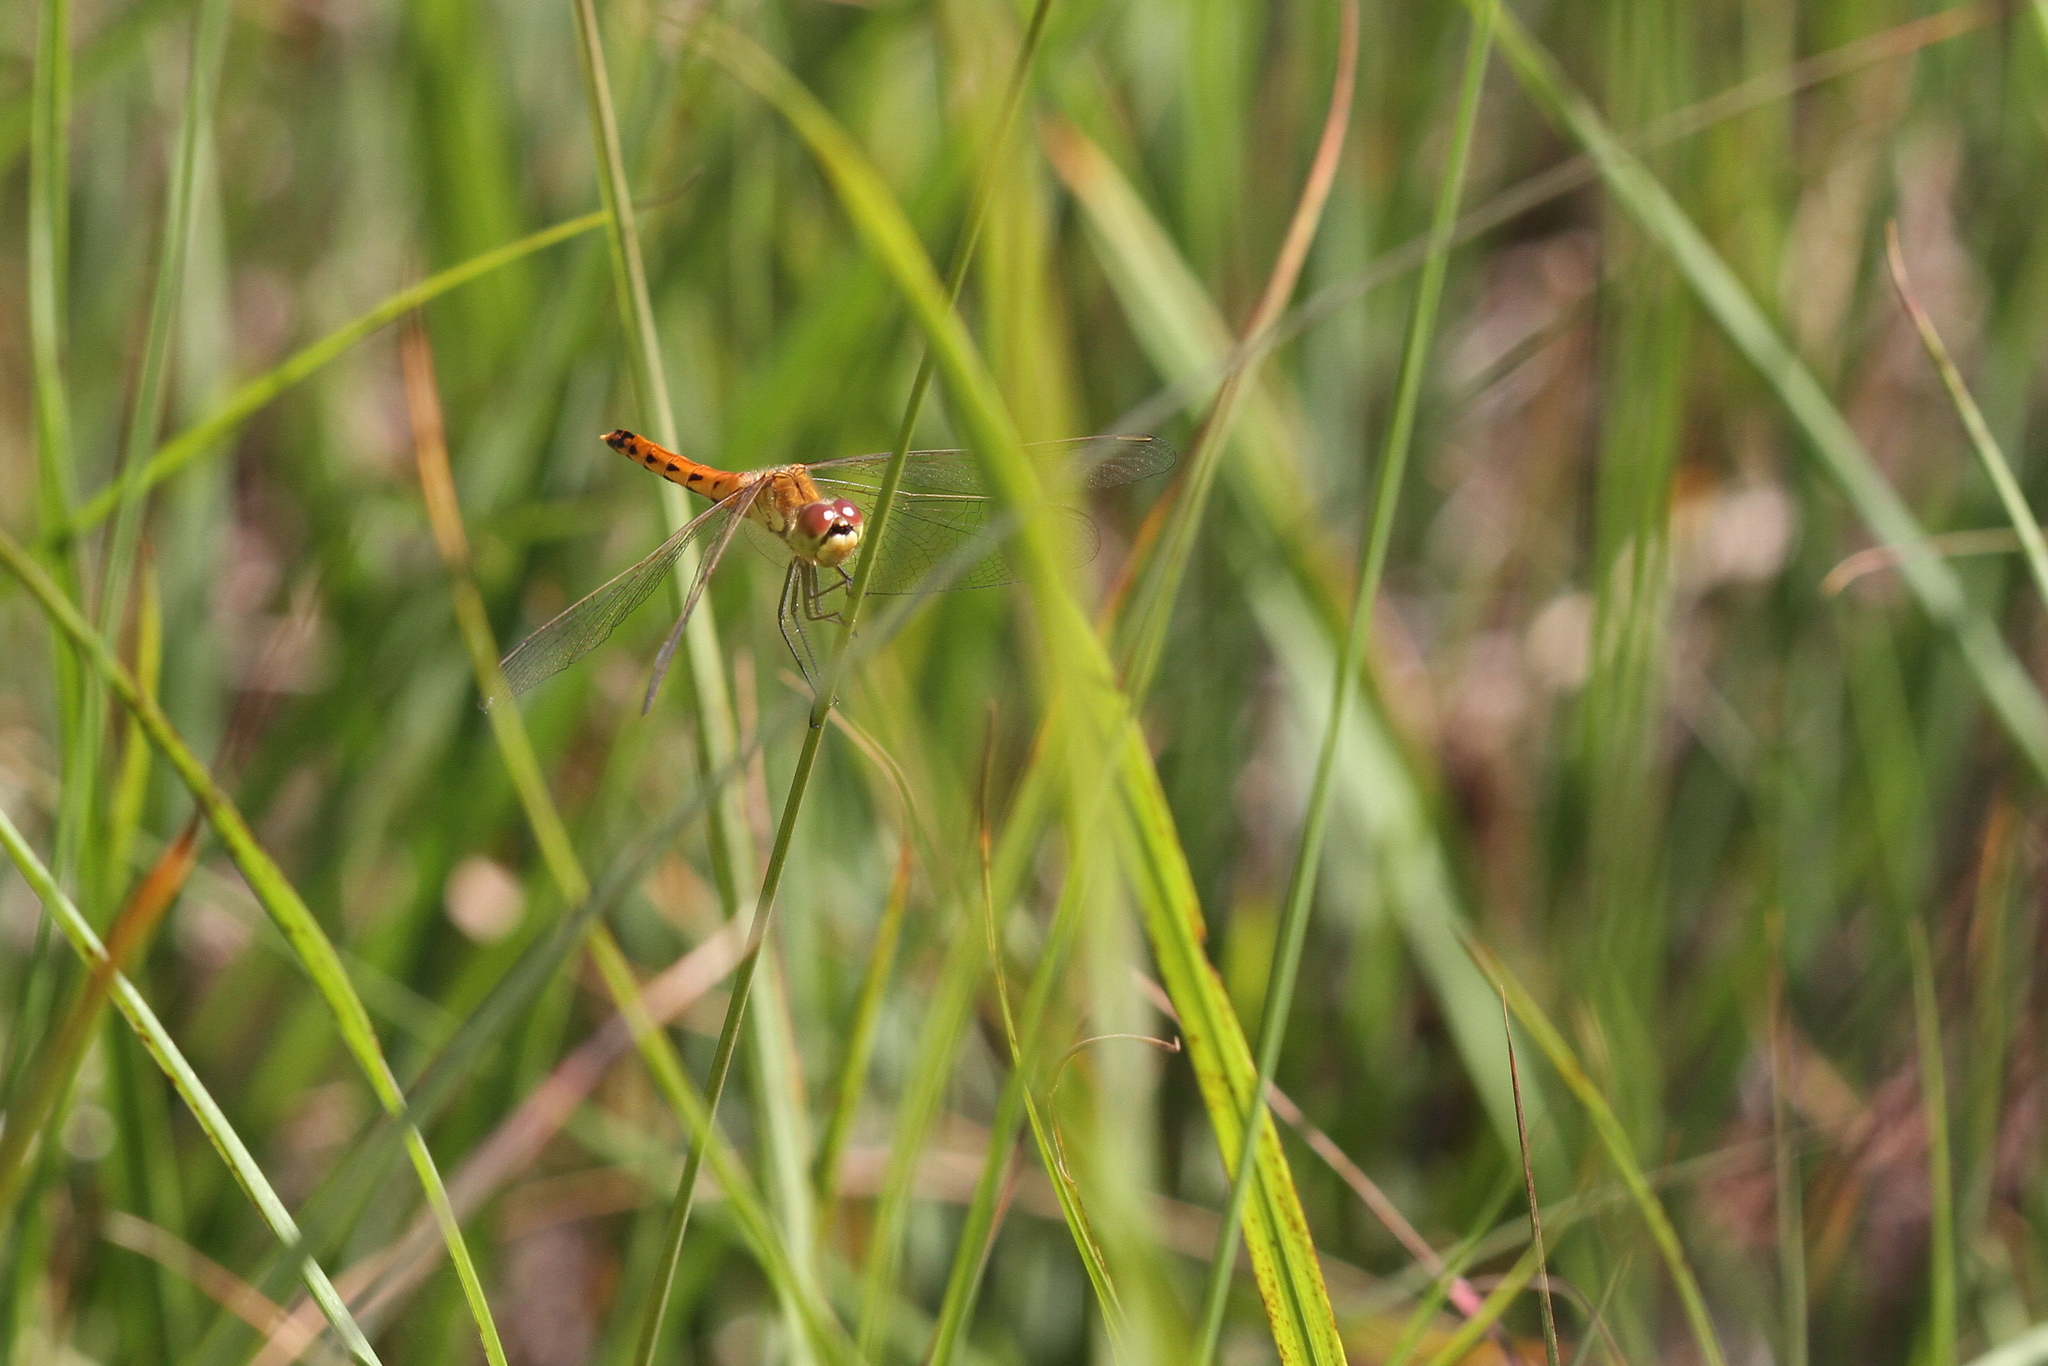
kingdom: Animalia
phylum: Arthropoda
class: Insecta
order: Odonata
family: Libellulidae
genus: Sympetrum
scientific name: Sympetrum depressiusculum
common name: Spotted darter
